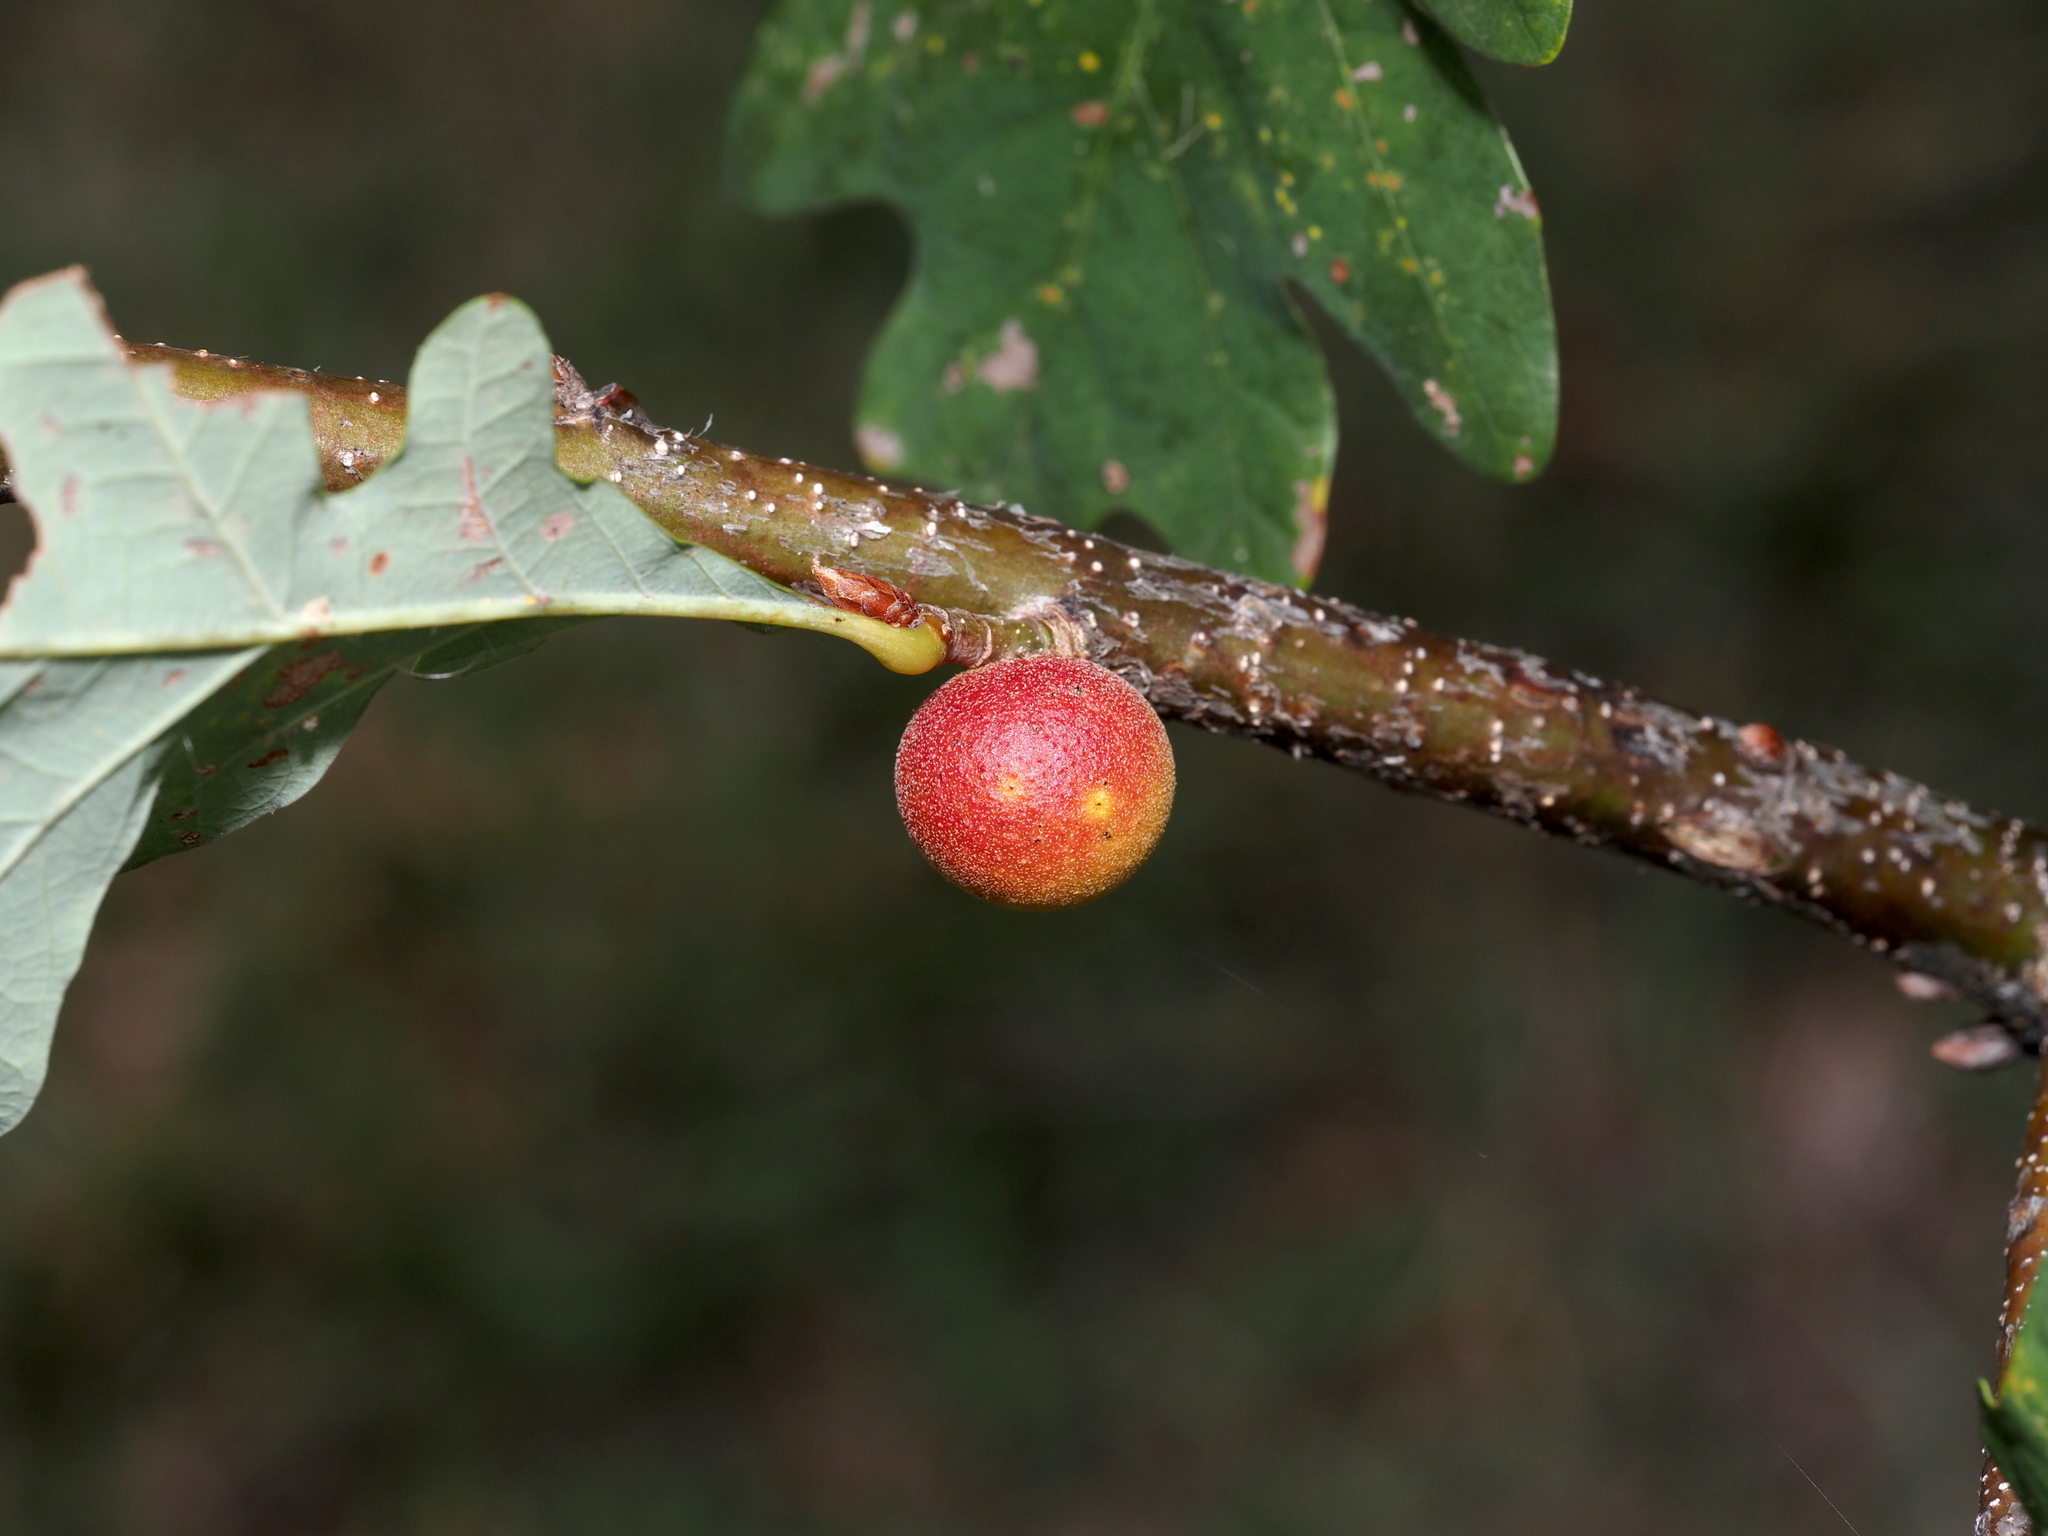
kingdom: Animalia
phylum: Arthropoda
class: Insecta
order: Hymenoptera
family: Cynipidae
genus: Disholcaspis
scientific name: Disholcaspis quercusglobulus
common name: Round bullet gall wasp
